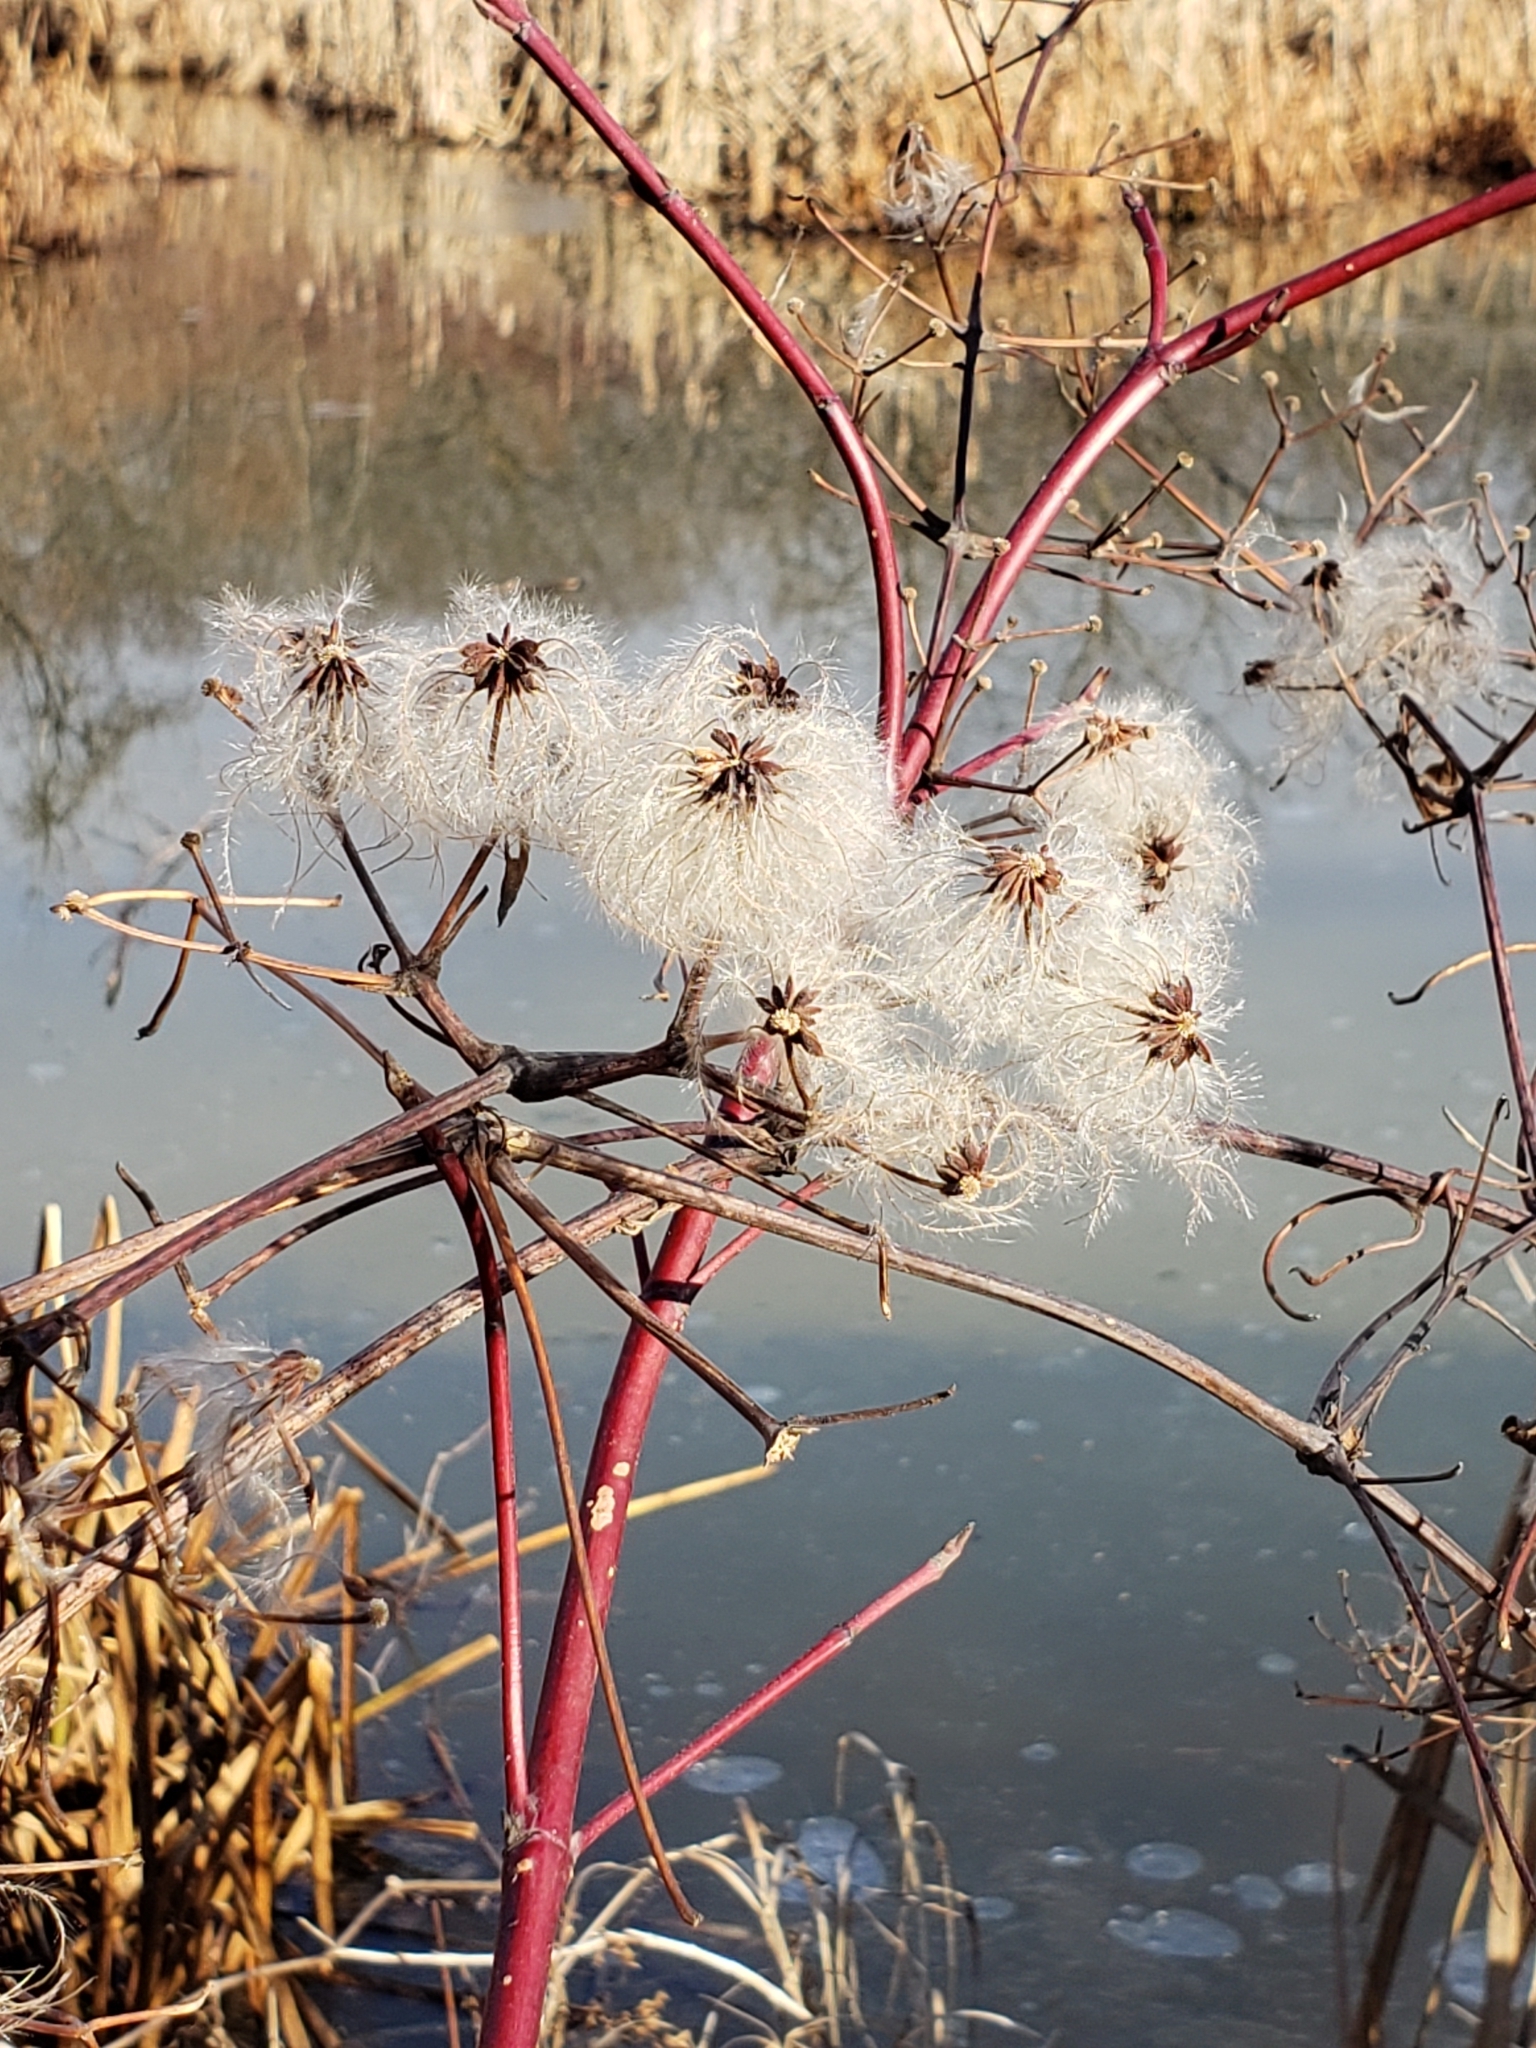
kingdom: Plantae
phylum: Tracheophyta
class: Magnoliopsida
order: Ranunculales
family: Ranunculaceae
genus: Clematis
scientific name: Clematis virginiana
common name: Virgin's-bower
